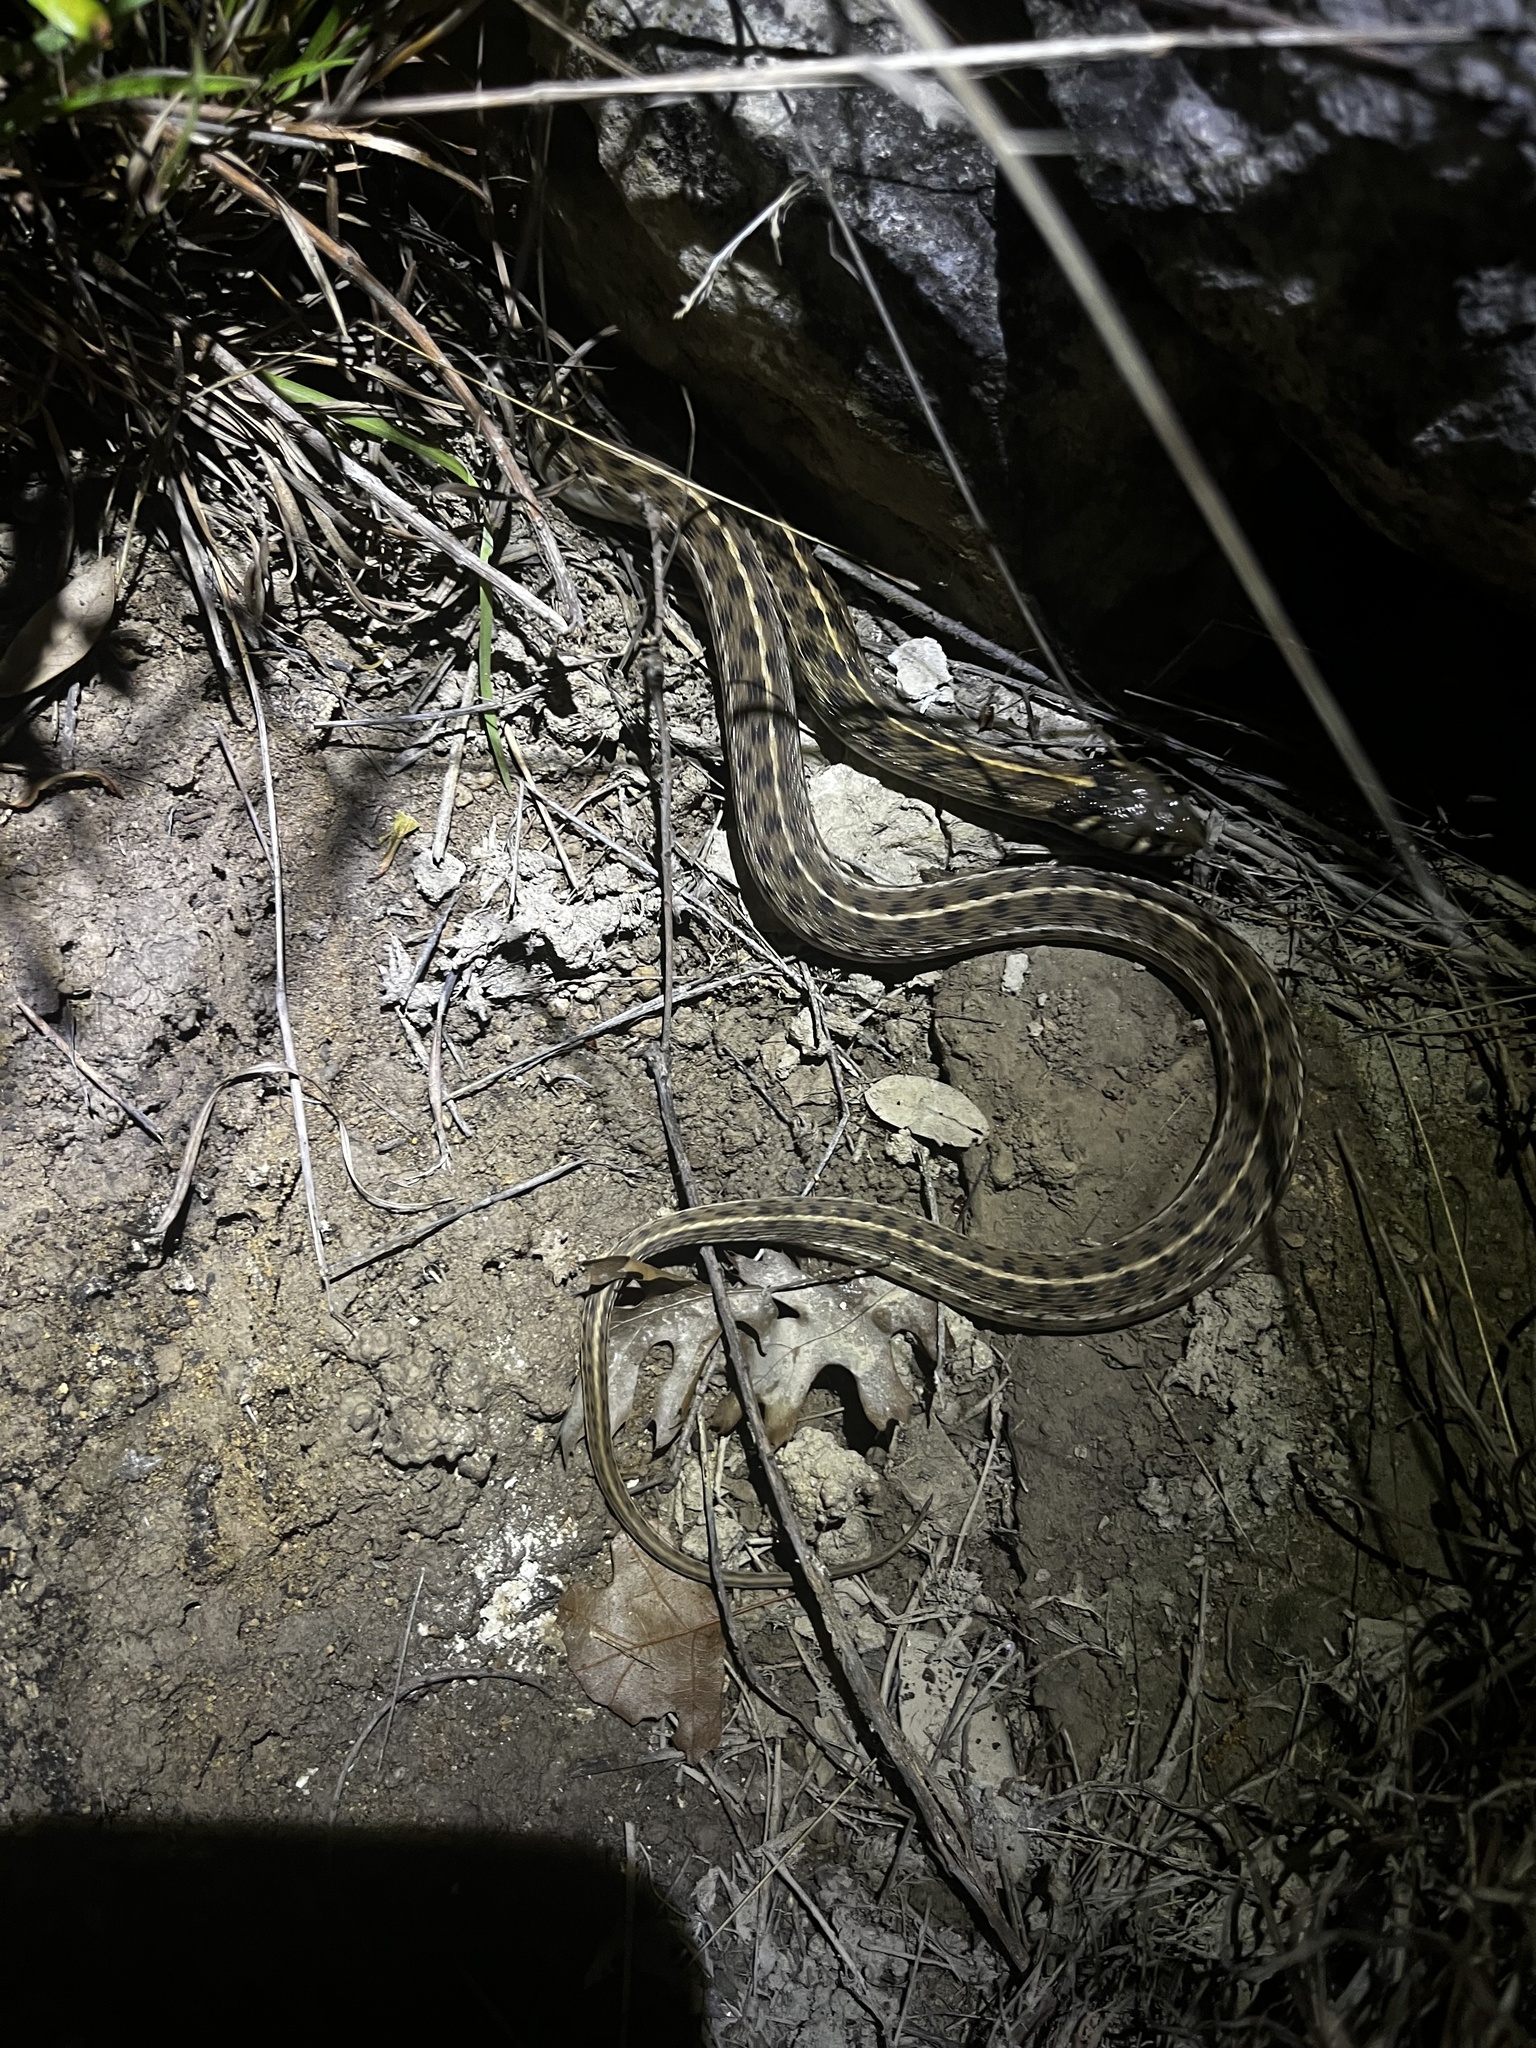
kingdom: Animalia
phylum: Chordata
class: Squamata
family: Colubridae
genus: Thamnophis
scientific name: Thamnophis marcianus
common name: Checkered garter snake
